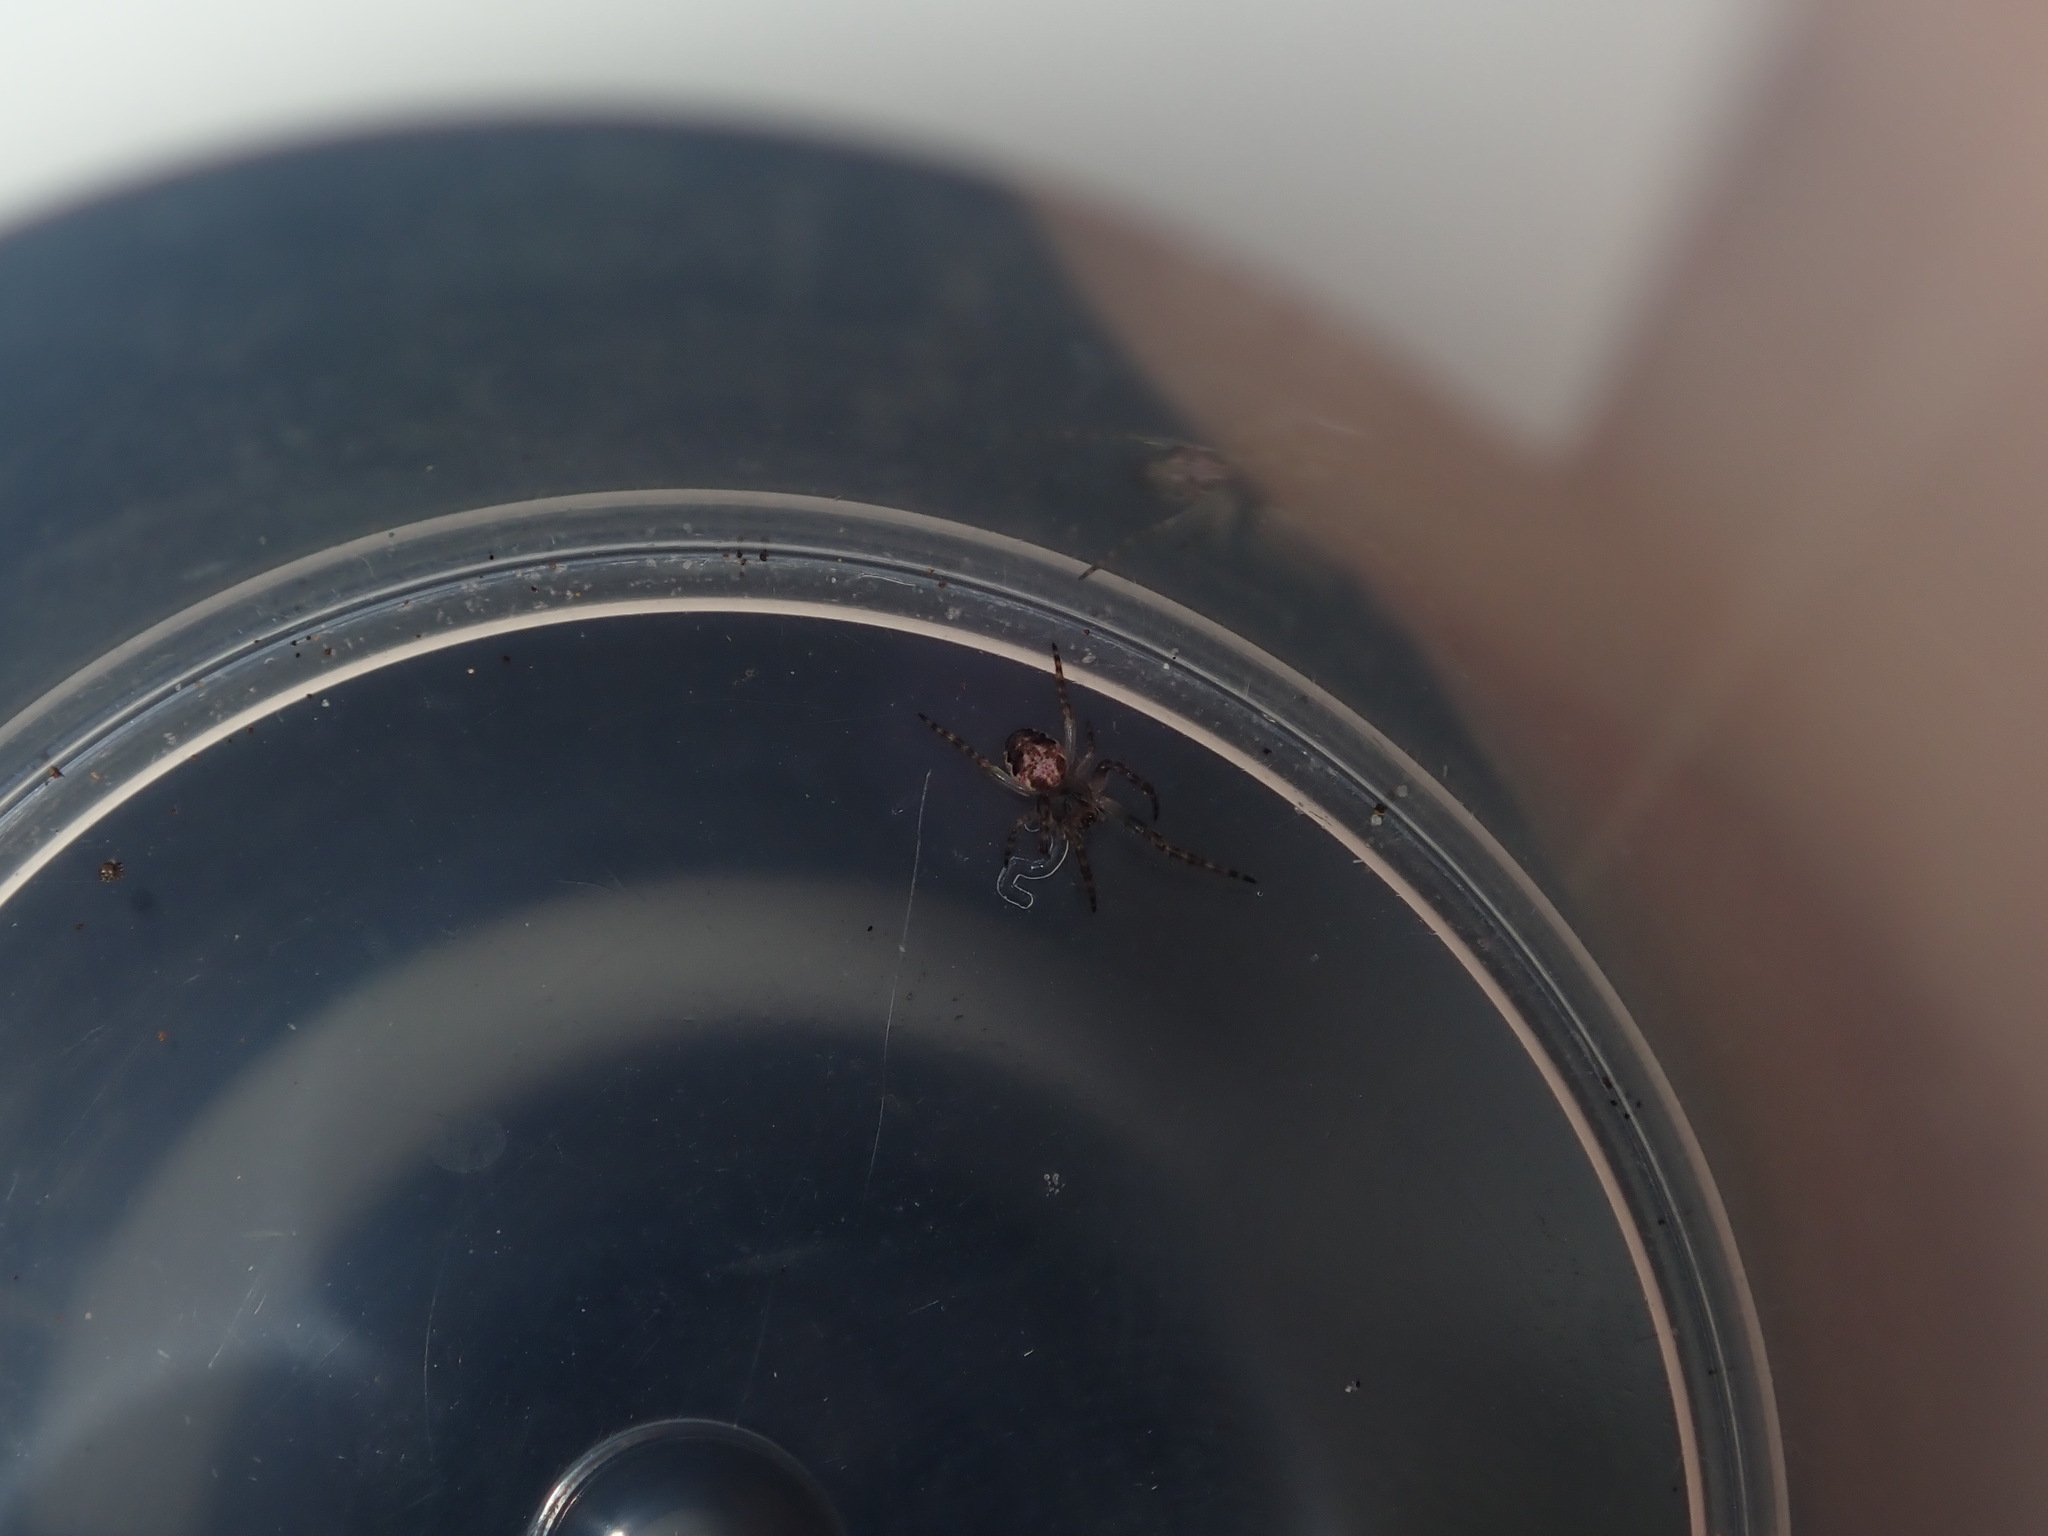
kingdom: Animalia
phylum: Arthropoda
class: Arachnida
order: Araneae
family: Araneidae
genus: Plebs
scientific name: Plebs eburnus
